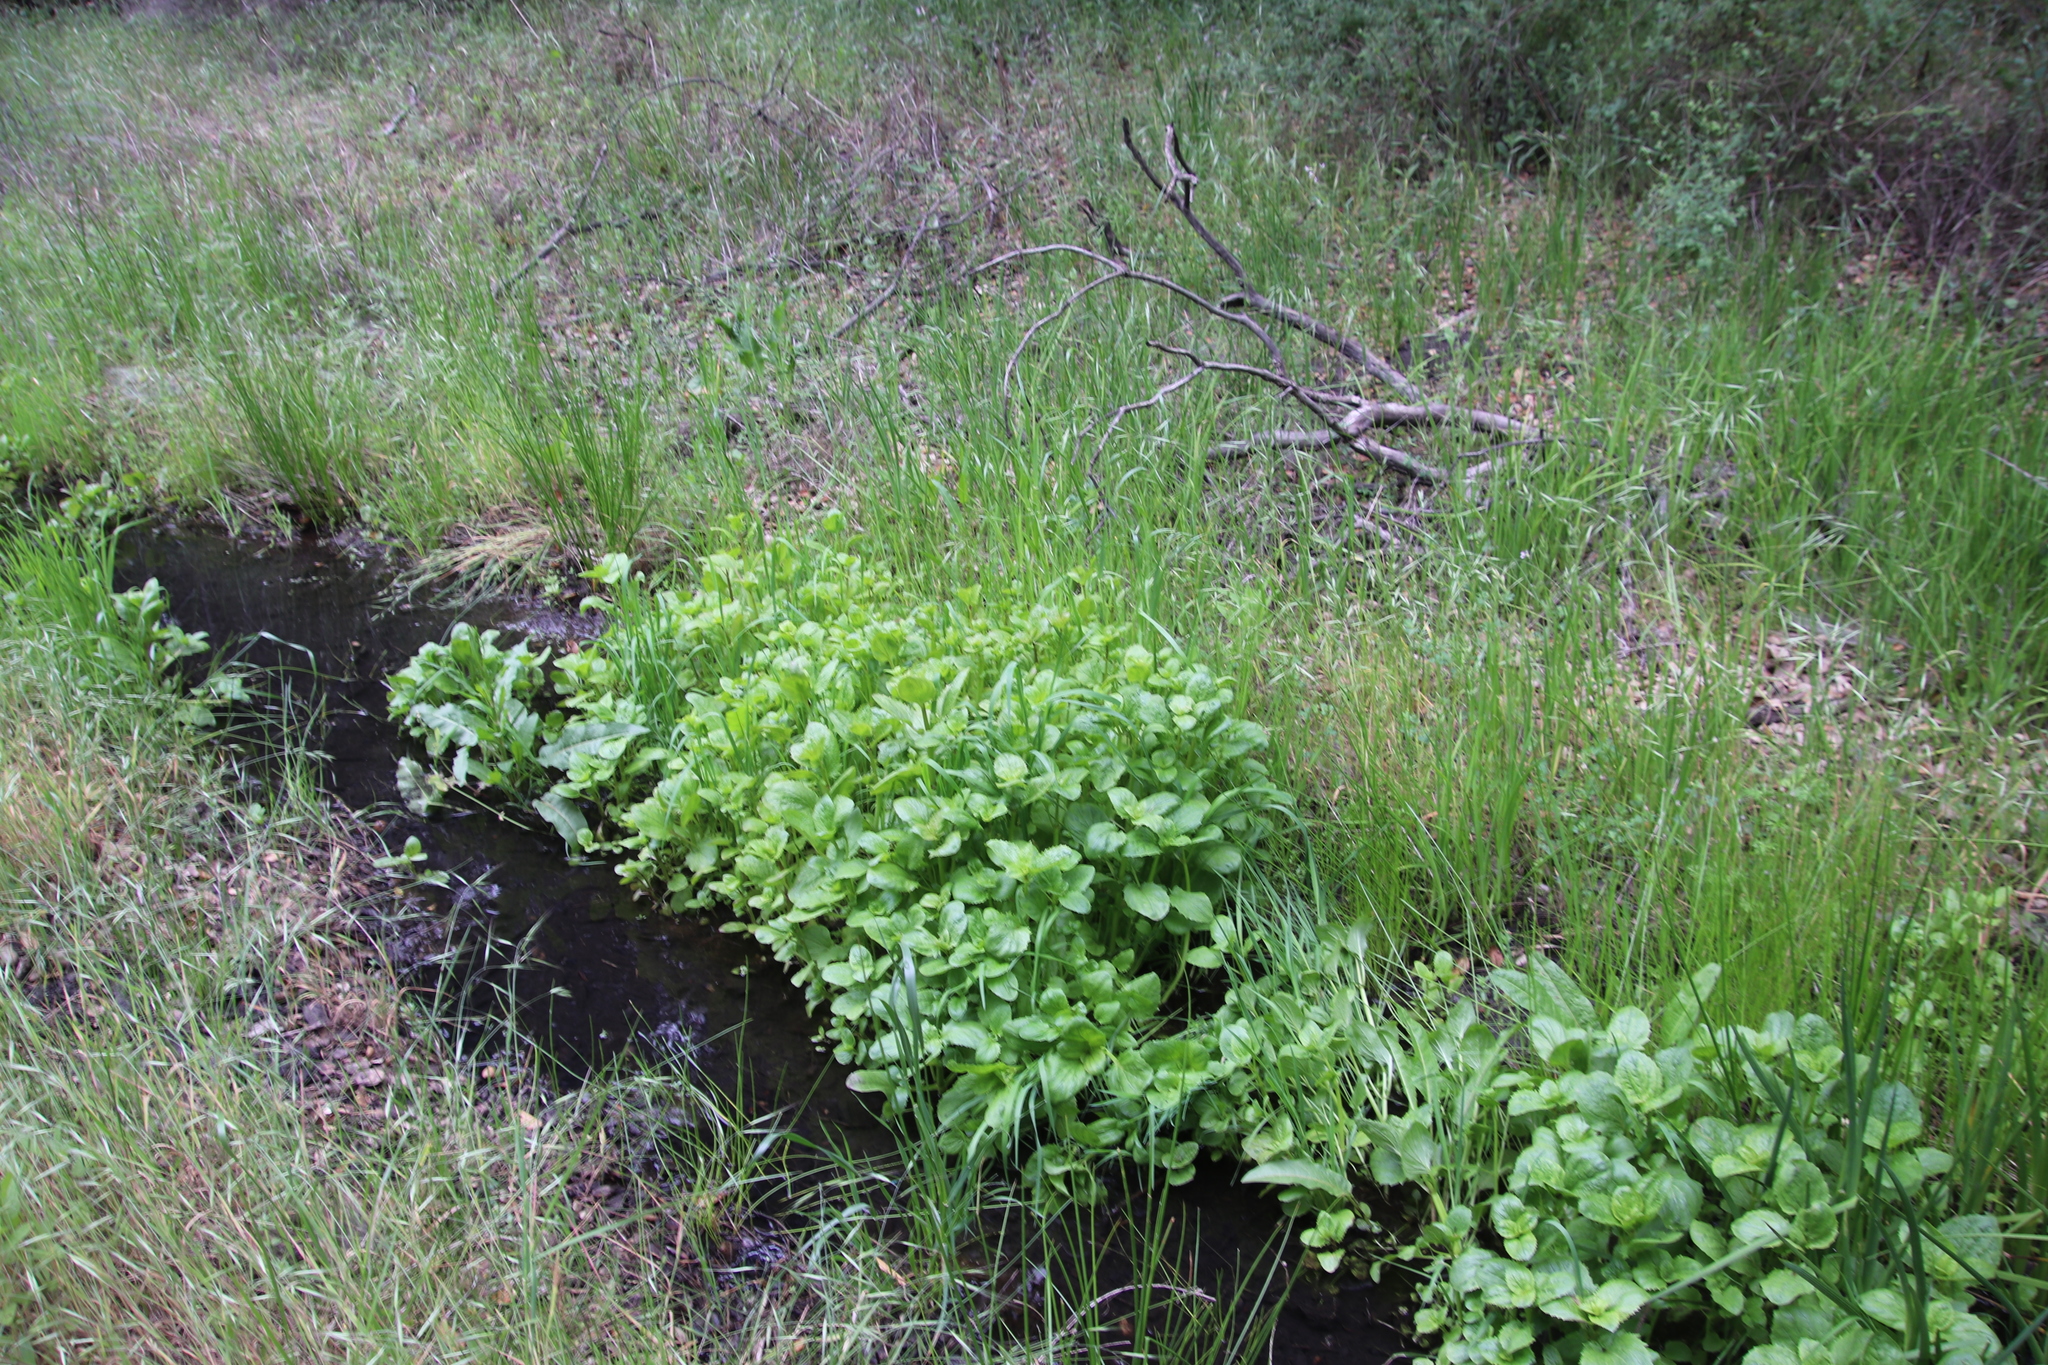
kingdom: Plantae
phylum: Tracheophyta
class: Magnoliopsida
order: Lamiales
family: Phrymaceae
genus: Erythranthe
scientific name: Erythranthe guttata
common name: Monkeyflower
